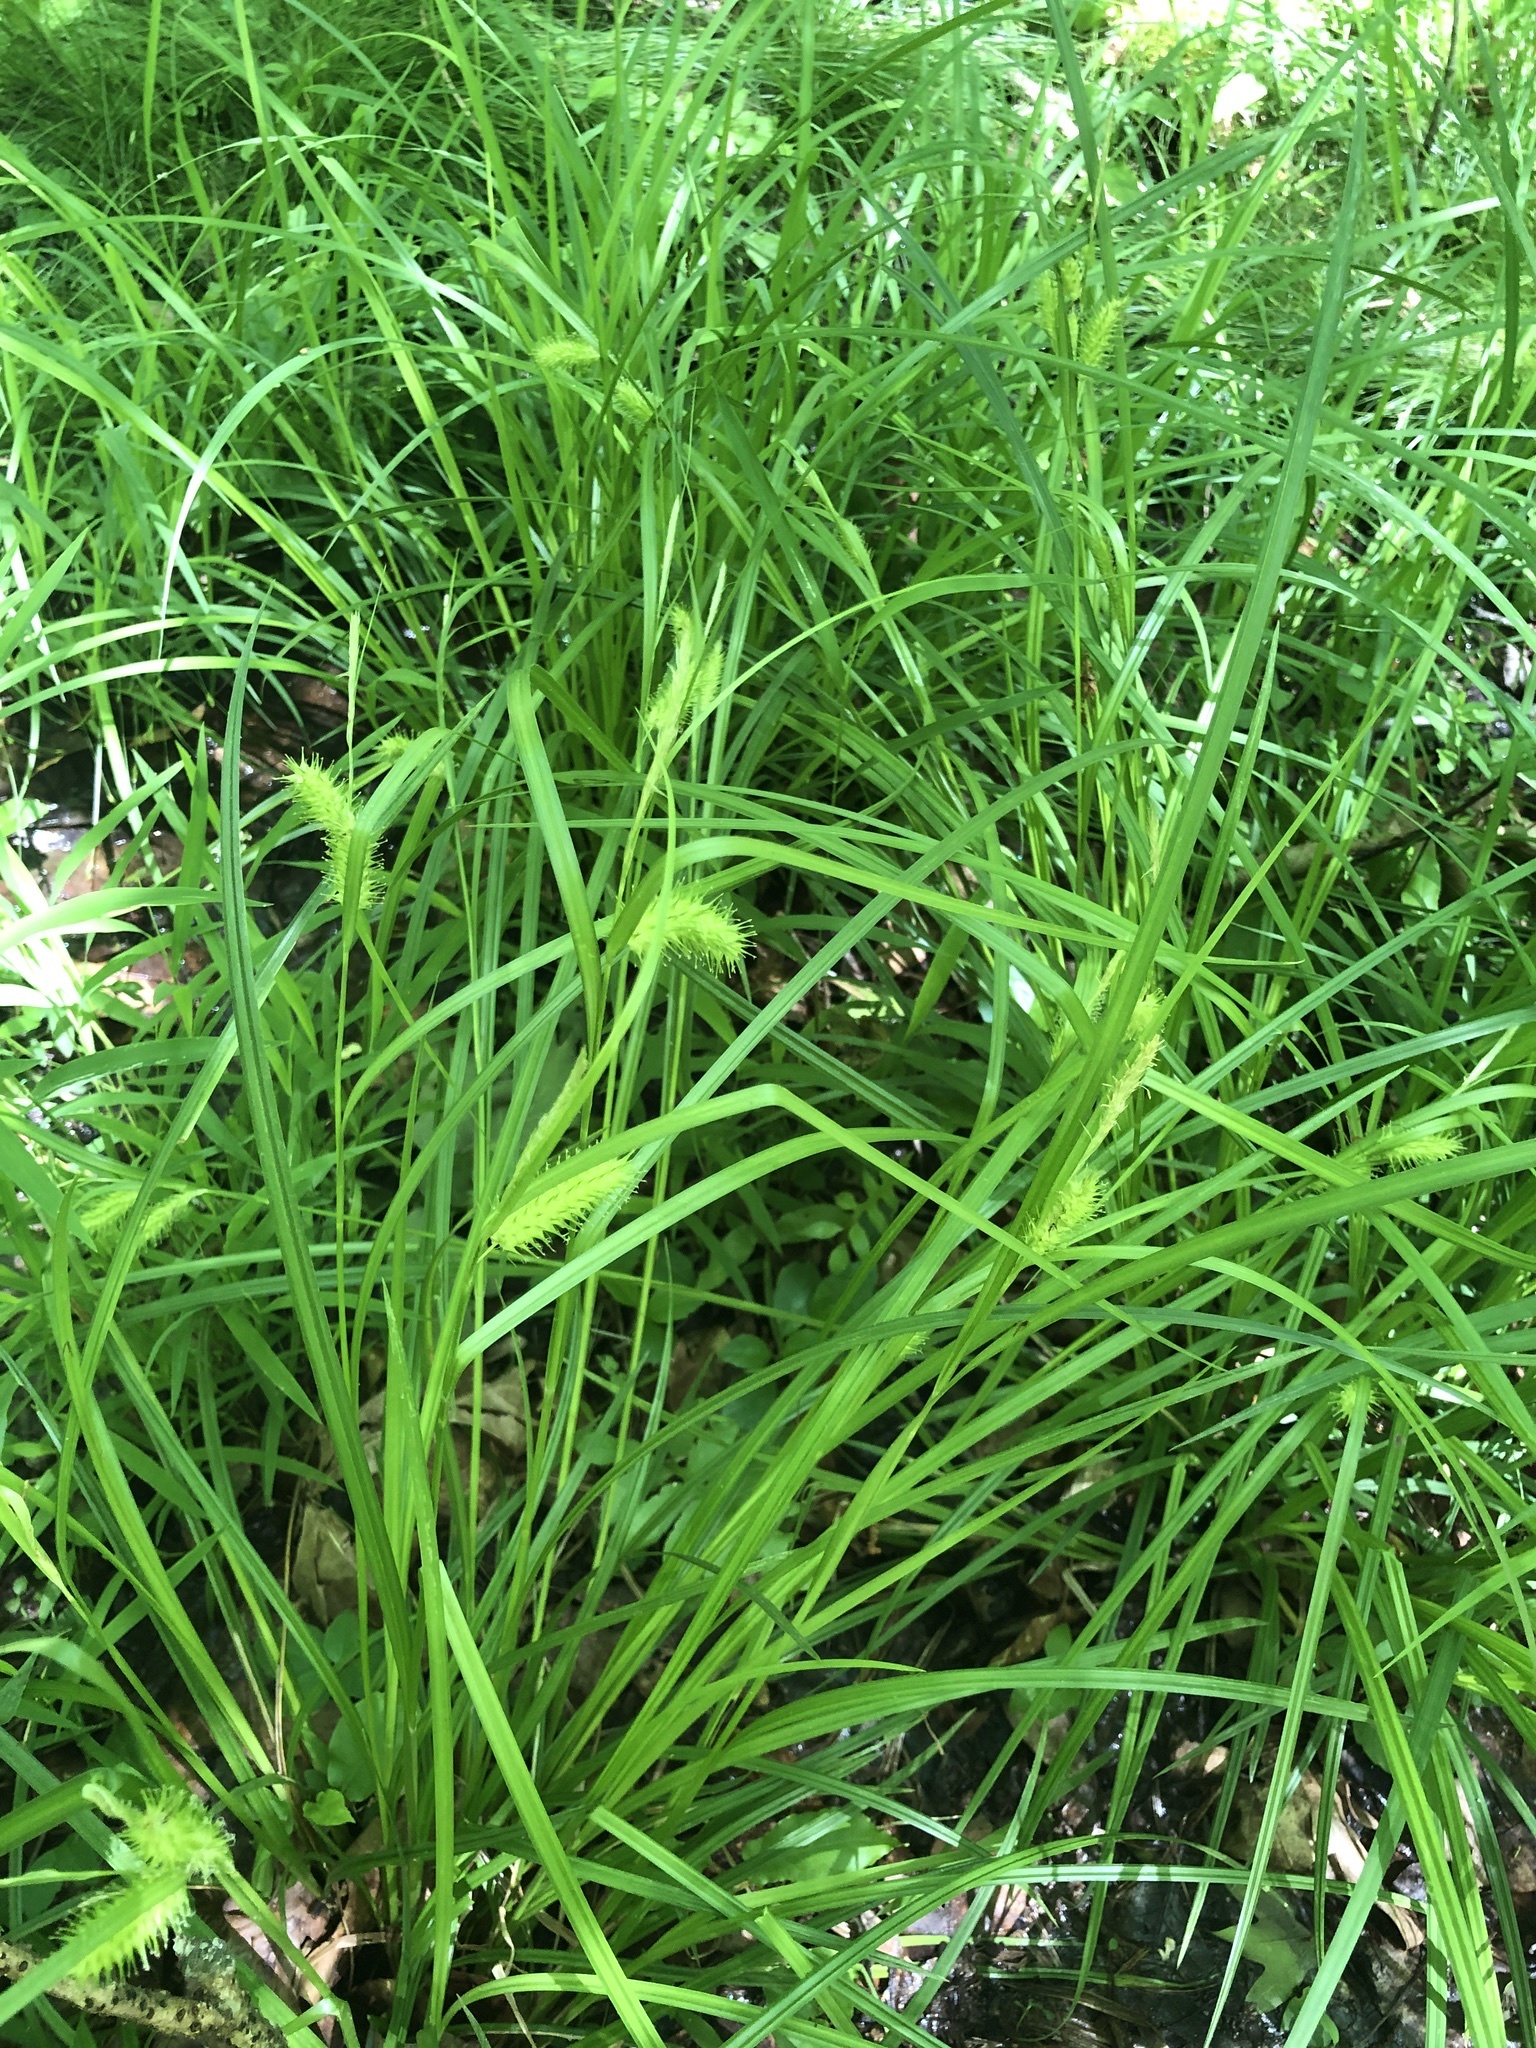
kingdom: Plantae
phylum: Tracheophyta
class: Liliopsida
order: Poales
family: Cyperaceae
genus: Carex
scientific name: Carex lurida
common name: Sallow sedge
